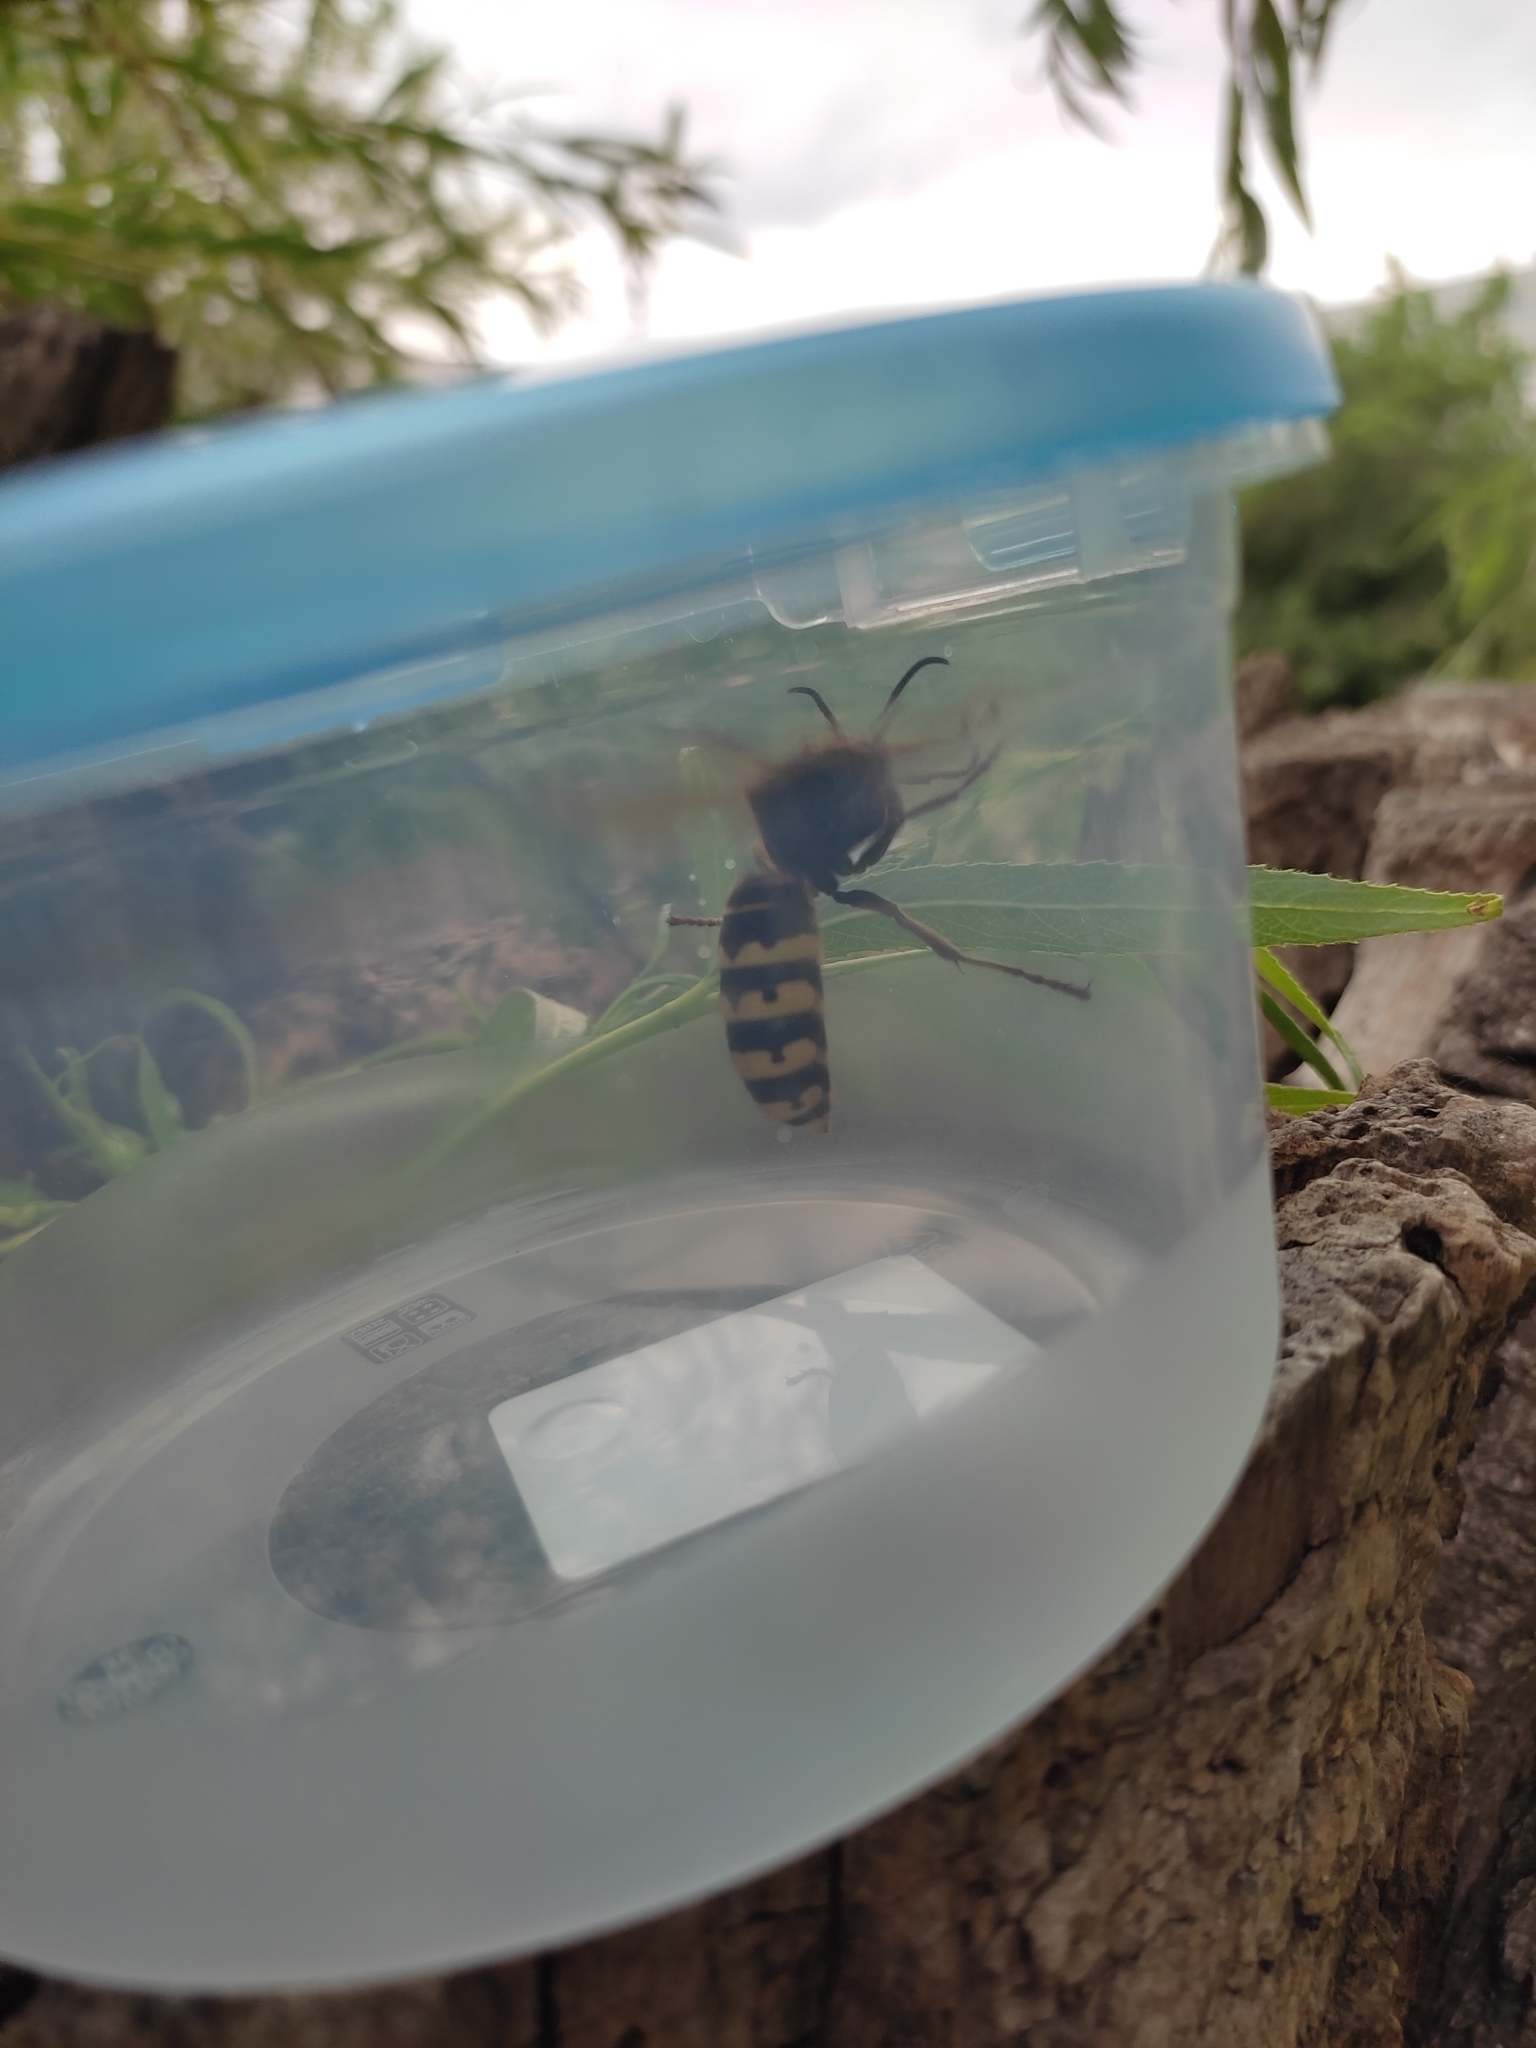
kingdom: Animalia
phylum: Arthropoda
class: Insecta
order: Hymenoptera
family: Vespidae
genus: Vespa
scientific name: Vespa crabro
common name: Hornet
